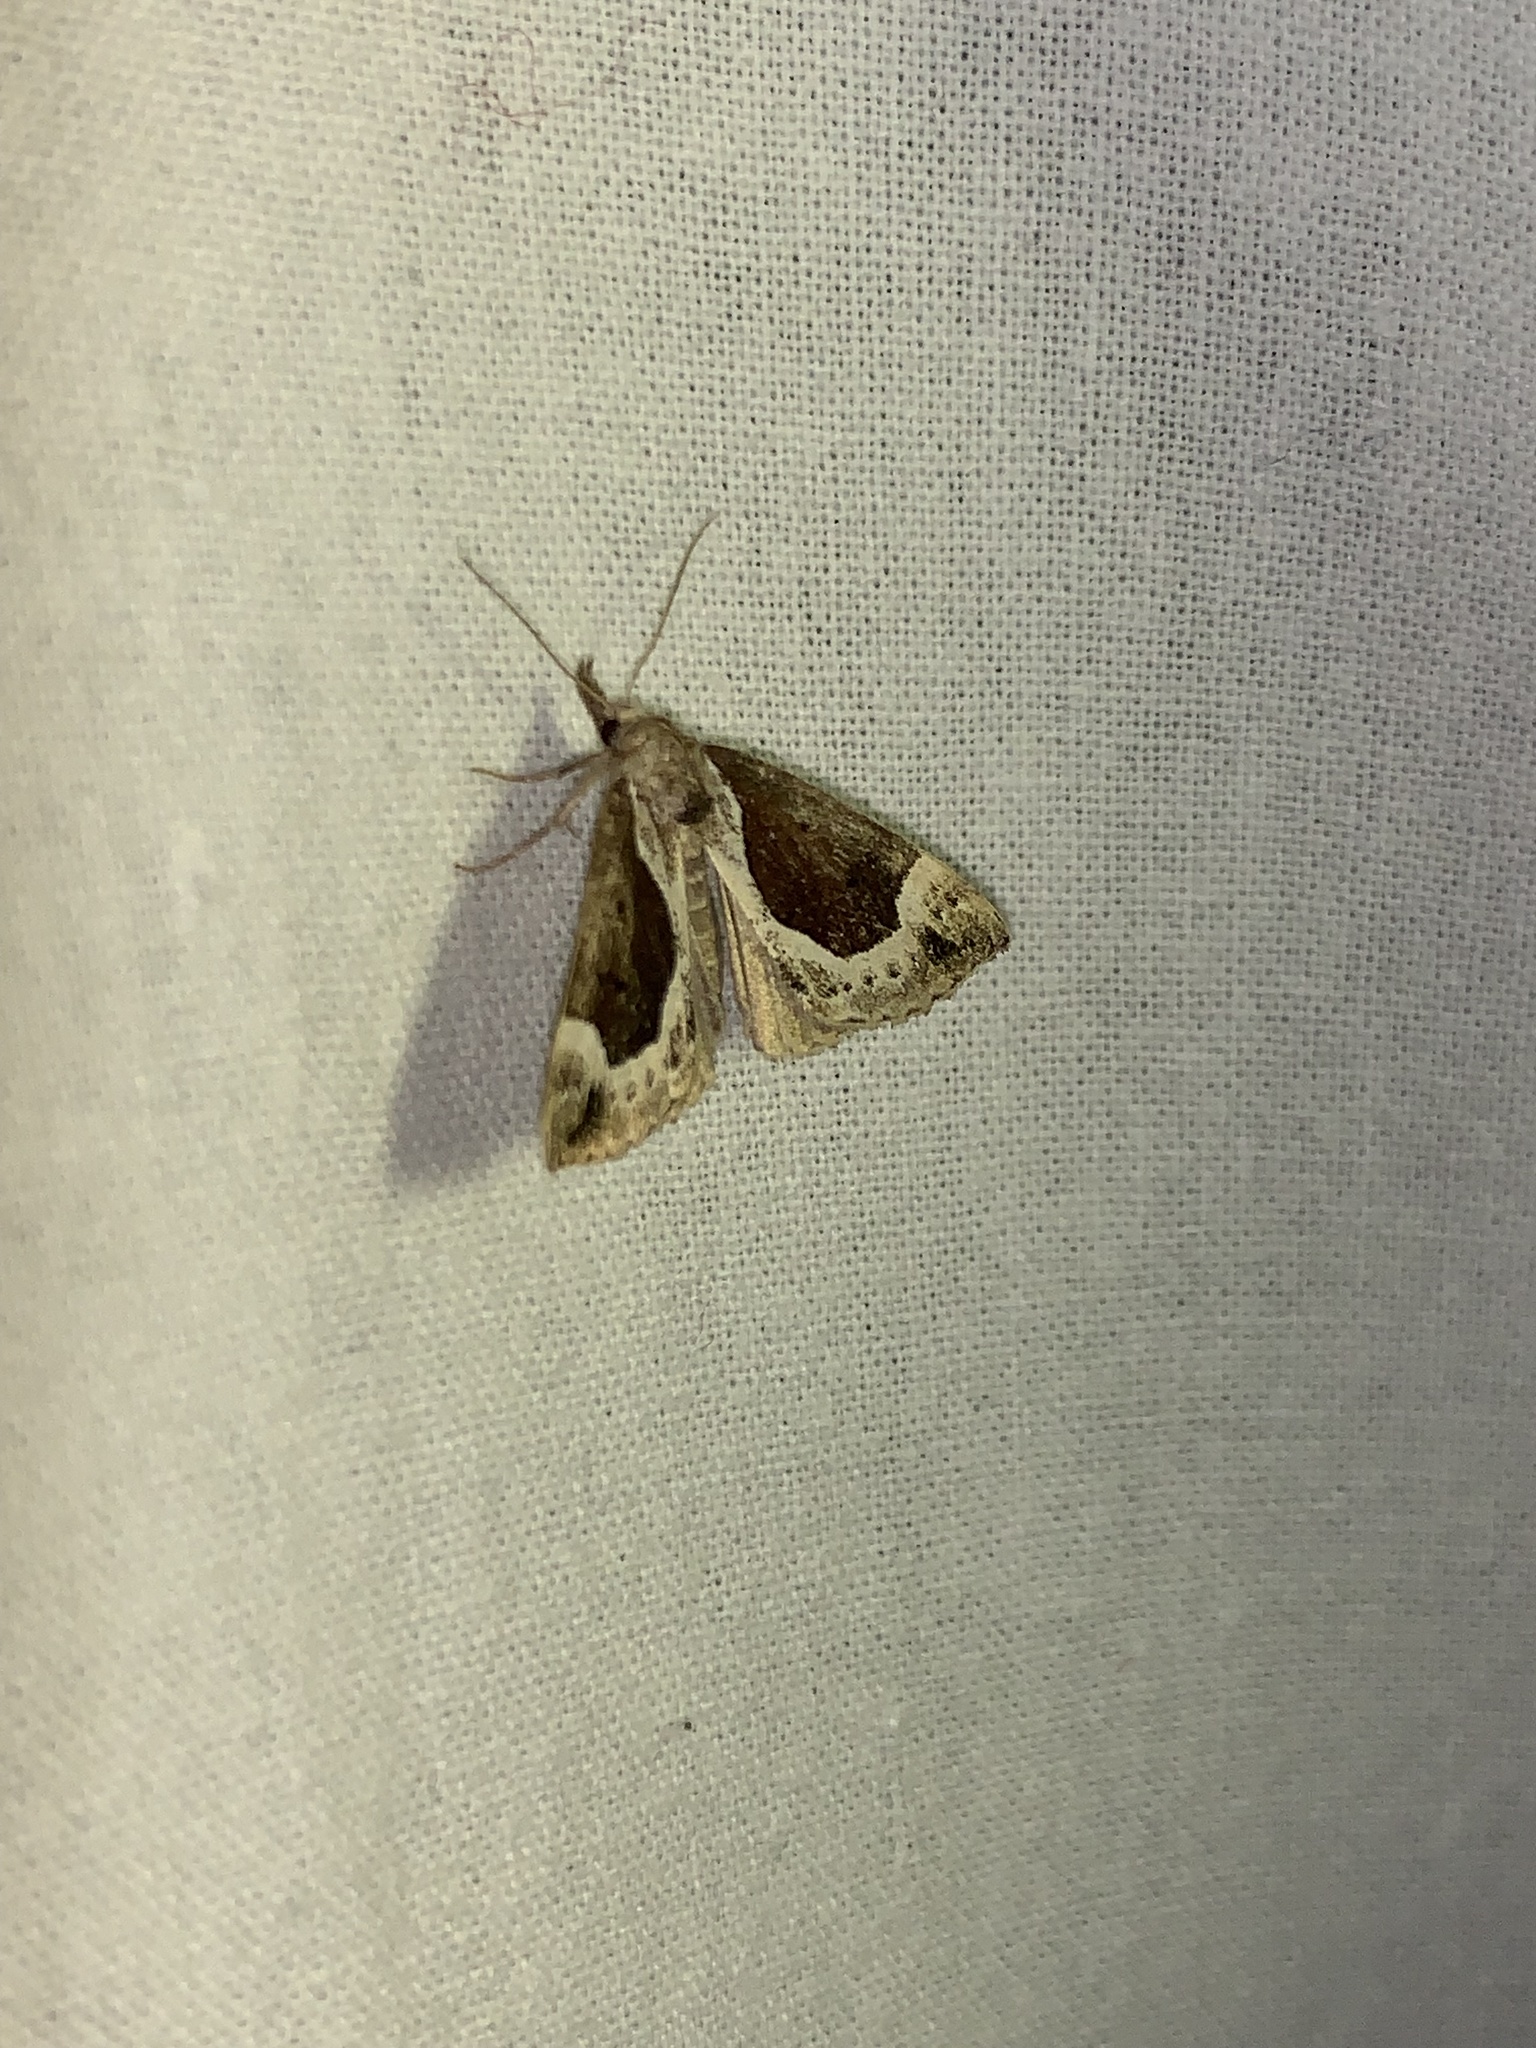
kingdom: Animalia
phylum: Arthropoda
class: Insecta
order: Lepidoptera
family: Erebidae
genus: Hypena
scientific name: Hypena crassalis
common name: Beautiful snout
